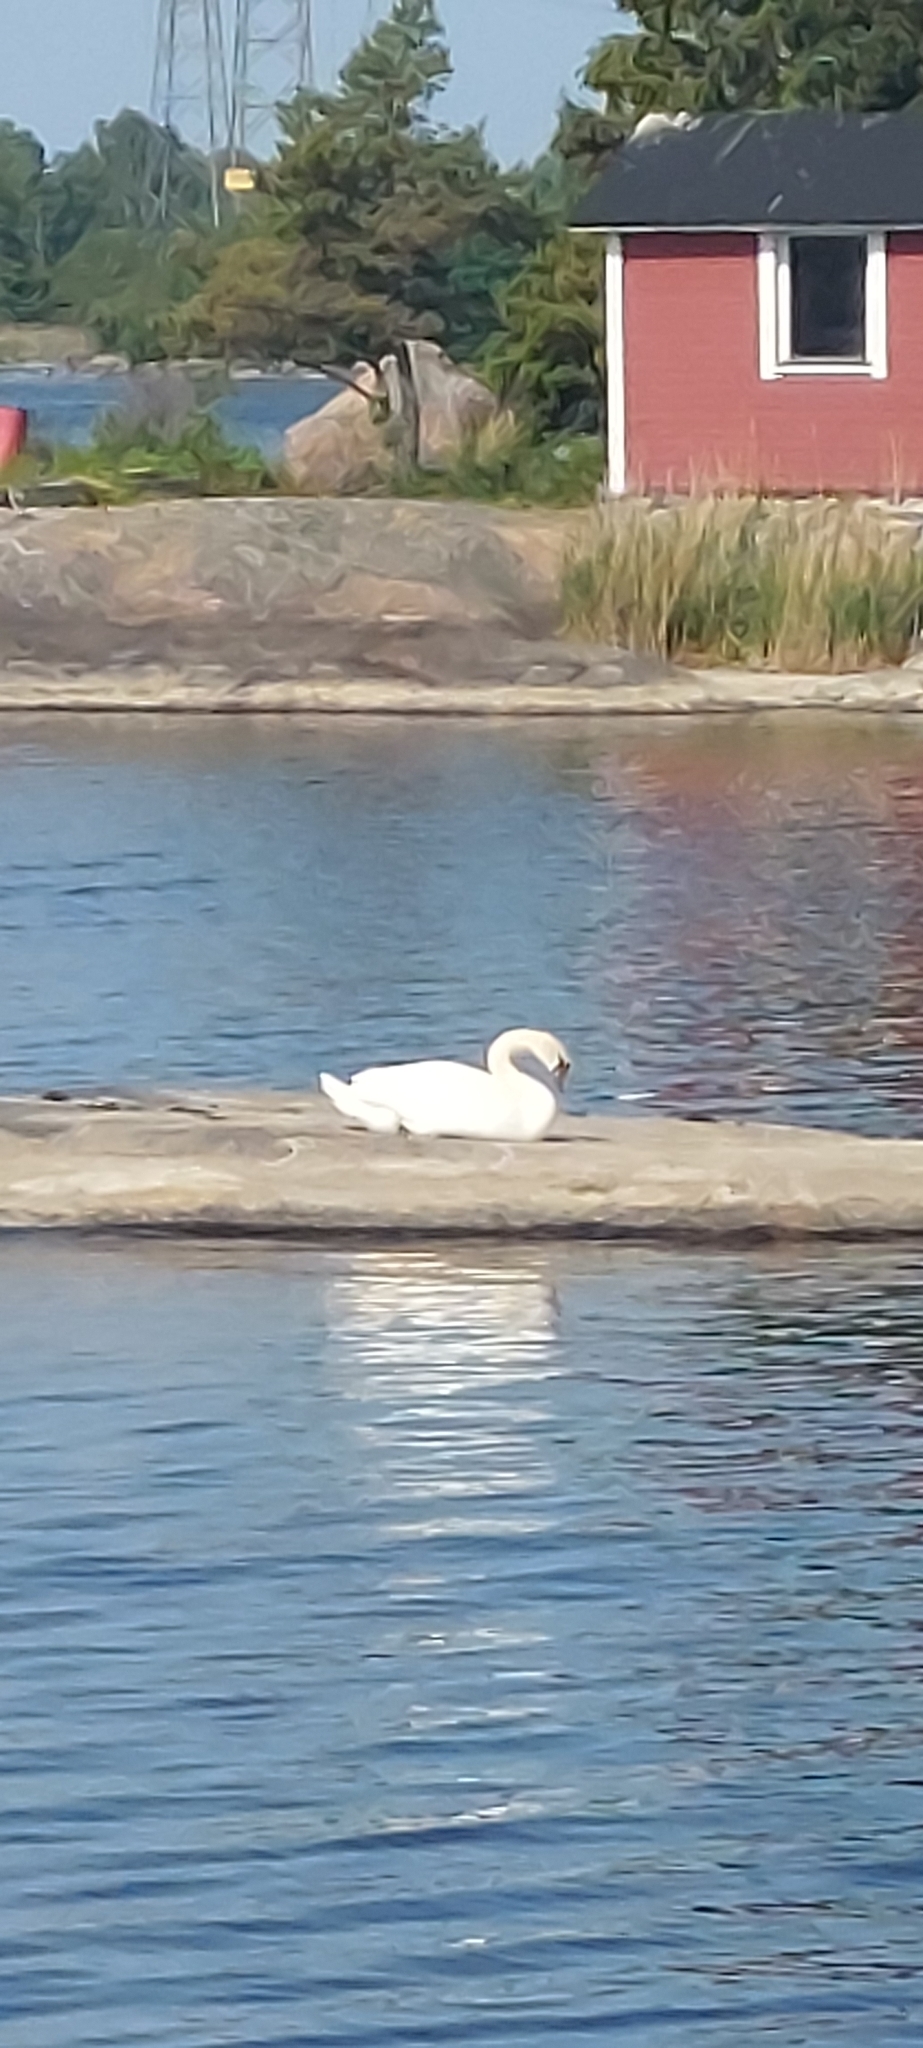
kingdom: Animalia
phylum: Chordata
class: Aves
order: Anseriformes
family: Anatidae
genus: Cygnus
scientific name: Cygnus olor
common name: Mute swan
